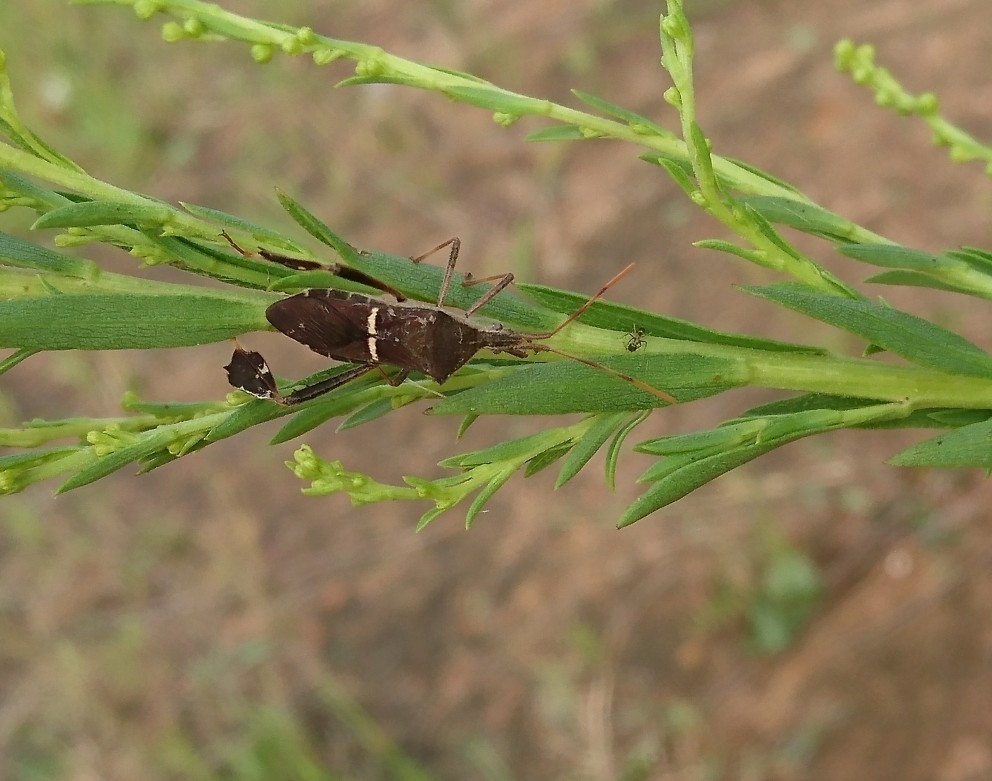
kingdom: Animalia
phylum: Arthropoda
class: Insecta
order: Hemiptera
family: Coreidae
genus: Leptoglossus
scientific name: Leptoglossus phyllopus
